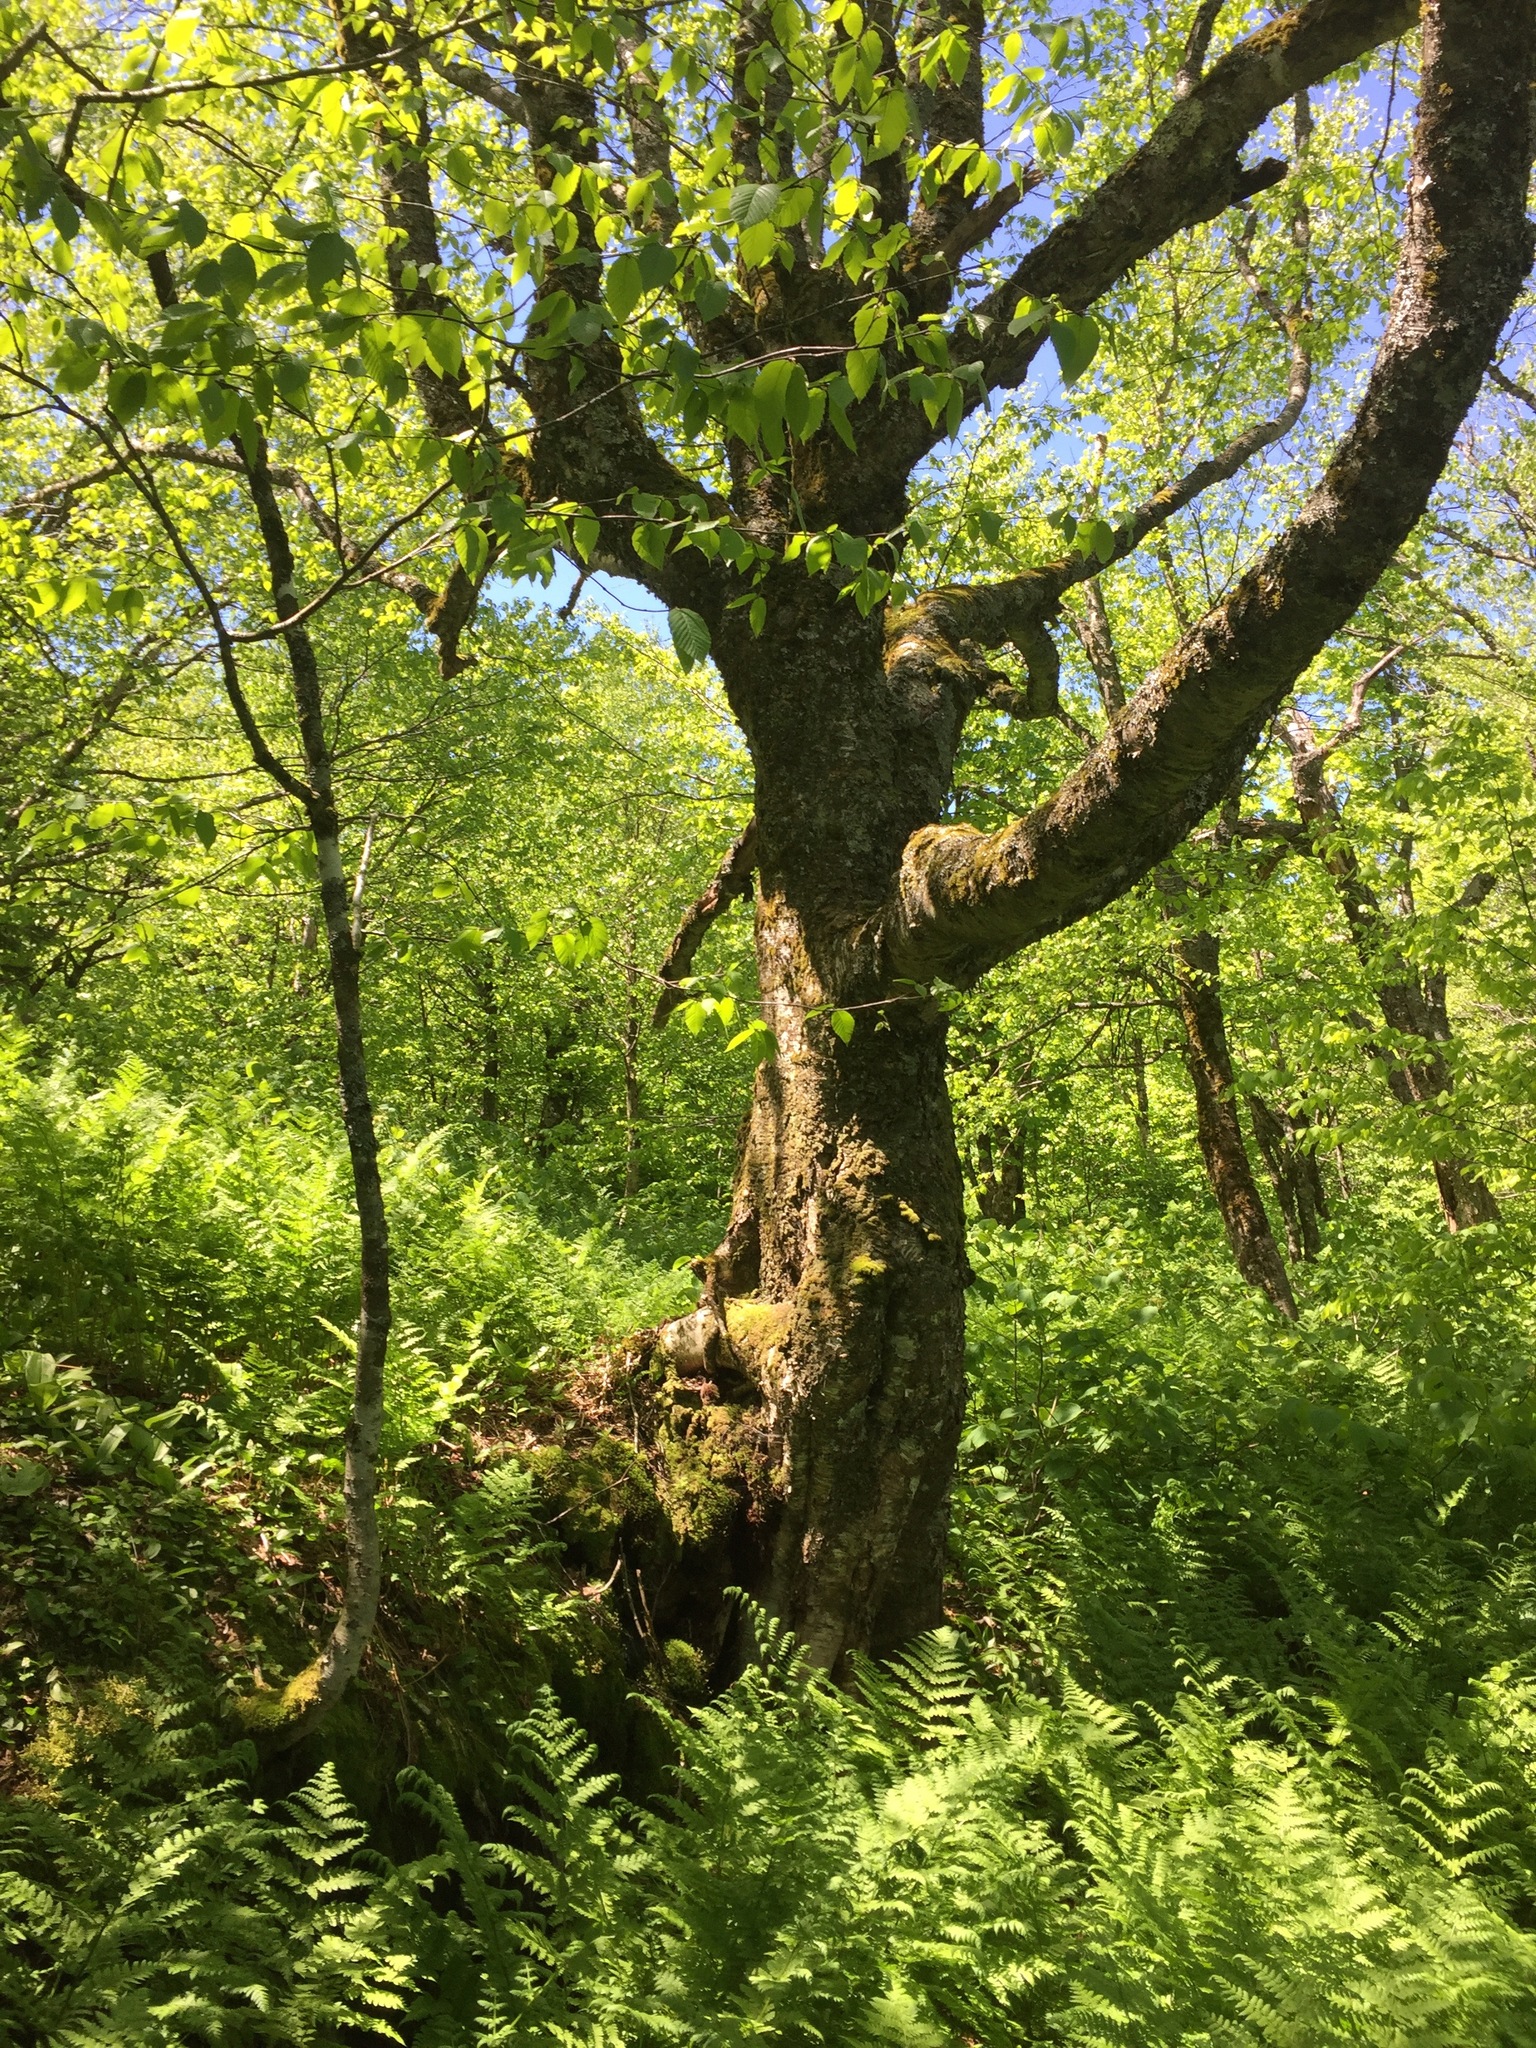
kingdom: Plantae
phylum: Tracheophyta
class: Magnoliopsida
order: Fagales
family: Betulaceae
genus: Betula
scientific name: Betula alleghaniensis
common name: Yellow birch
